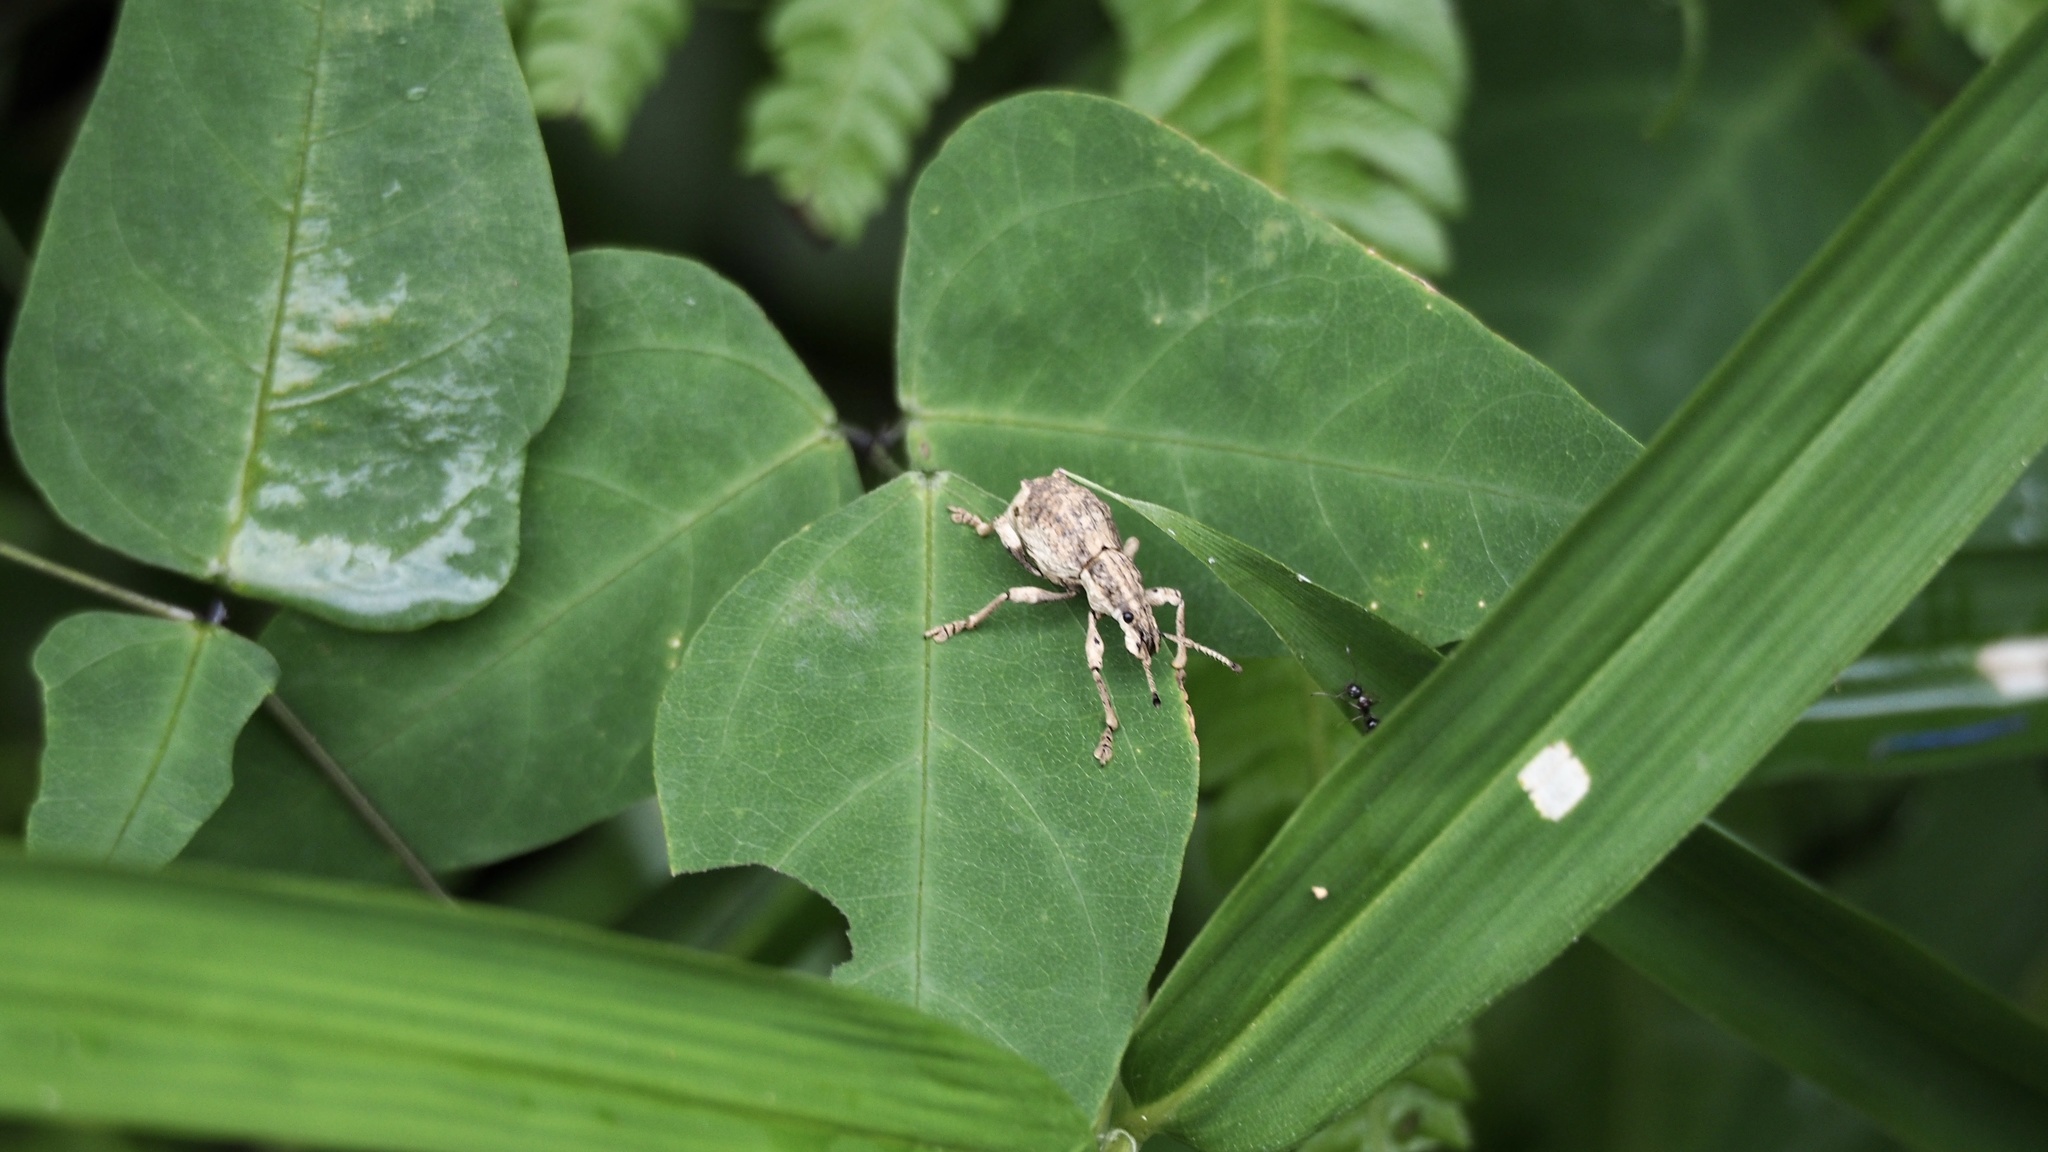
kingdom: Animalia
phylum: Arthropoda
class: Insecta
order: Coleoptera
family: Curculionidae
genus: Episomus
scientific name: Episomus turritus
